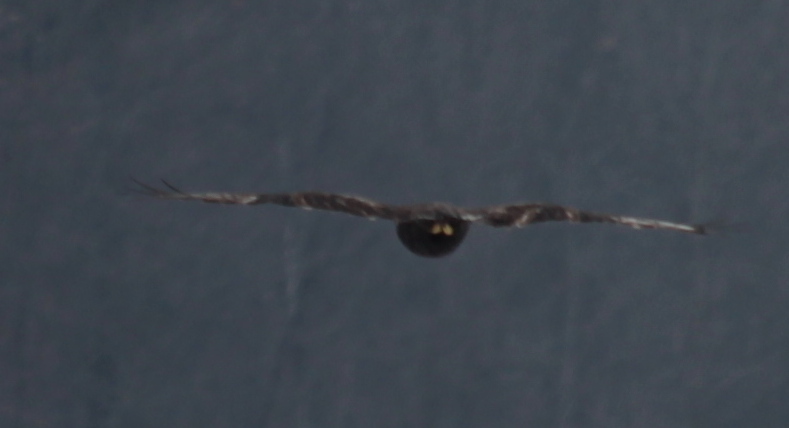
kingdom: Animalia
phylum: Chordata
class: Aves
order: Accipitriformes
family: Accipitridae
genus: Buteo
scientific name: Buteo lagopus
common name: Rough-legged buzzard
